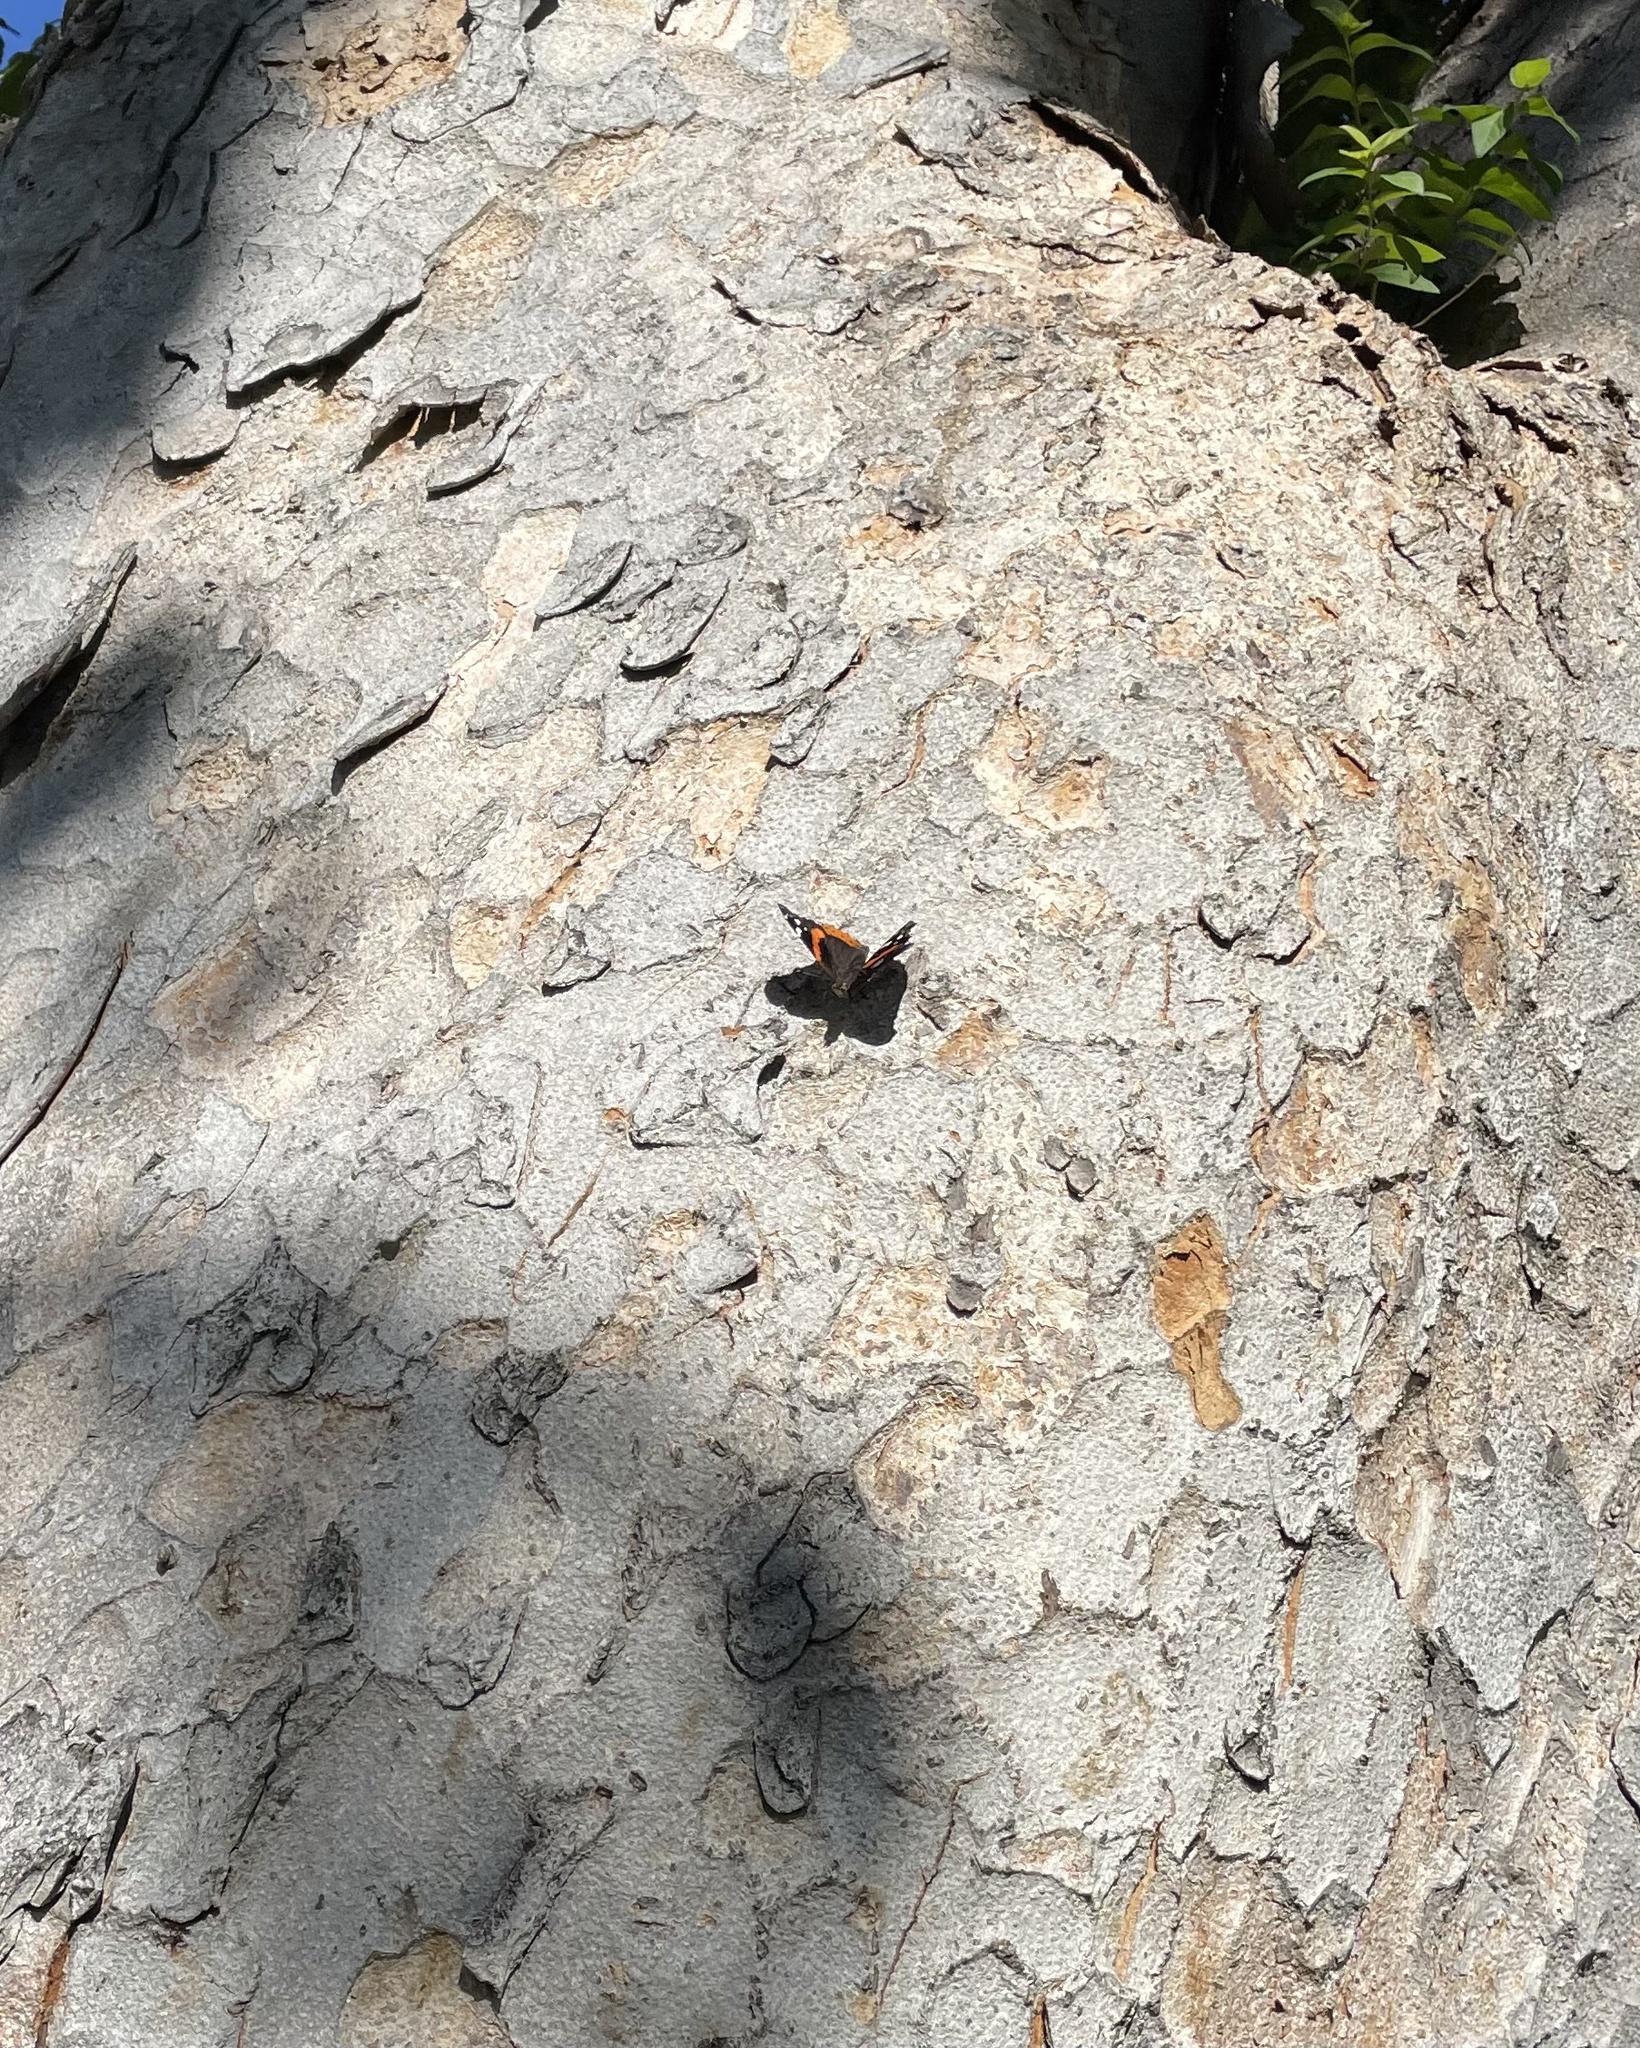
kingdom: Animalia
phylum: Arthropoda
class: Insecta
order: Lepidoptera
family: Nymphalidae
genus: Vanessa
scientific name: Vanessa atalanta
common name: Red admiral
